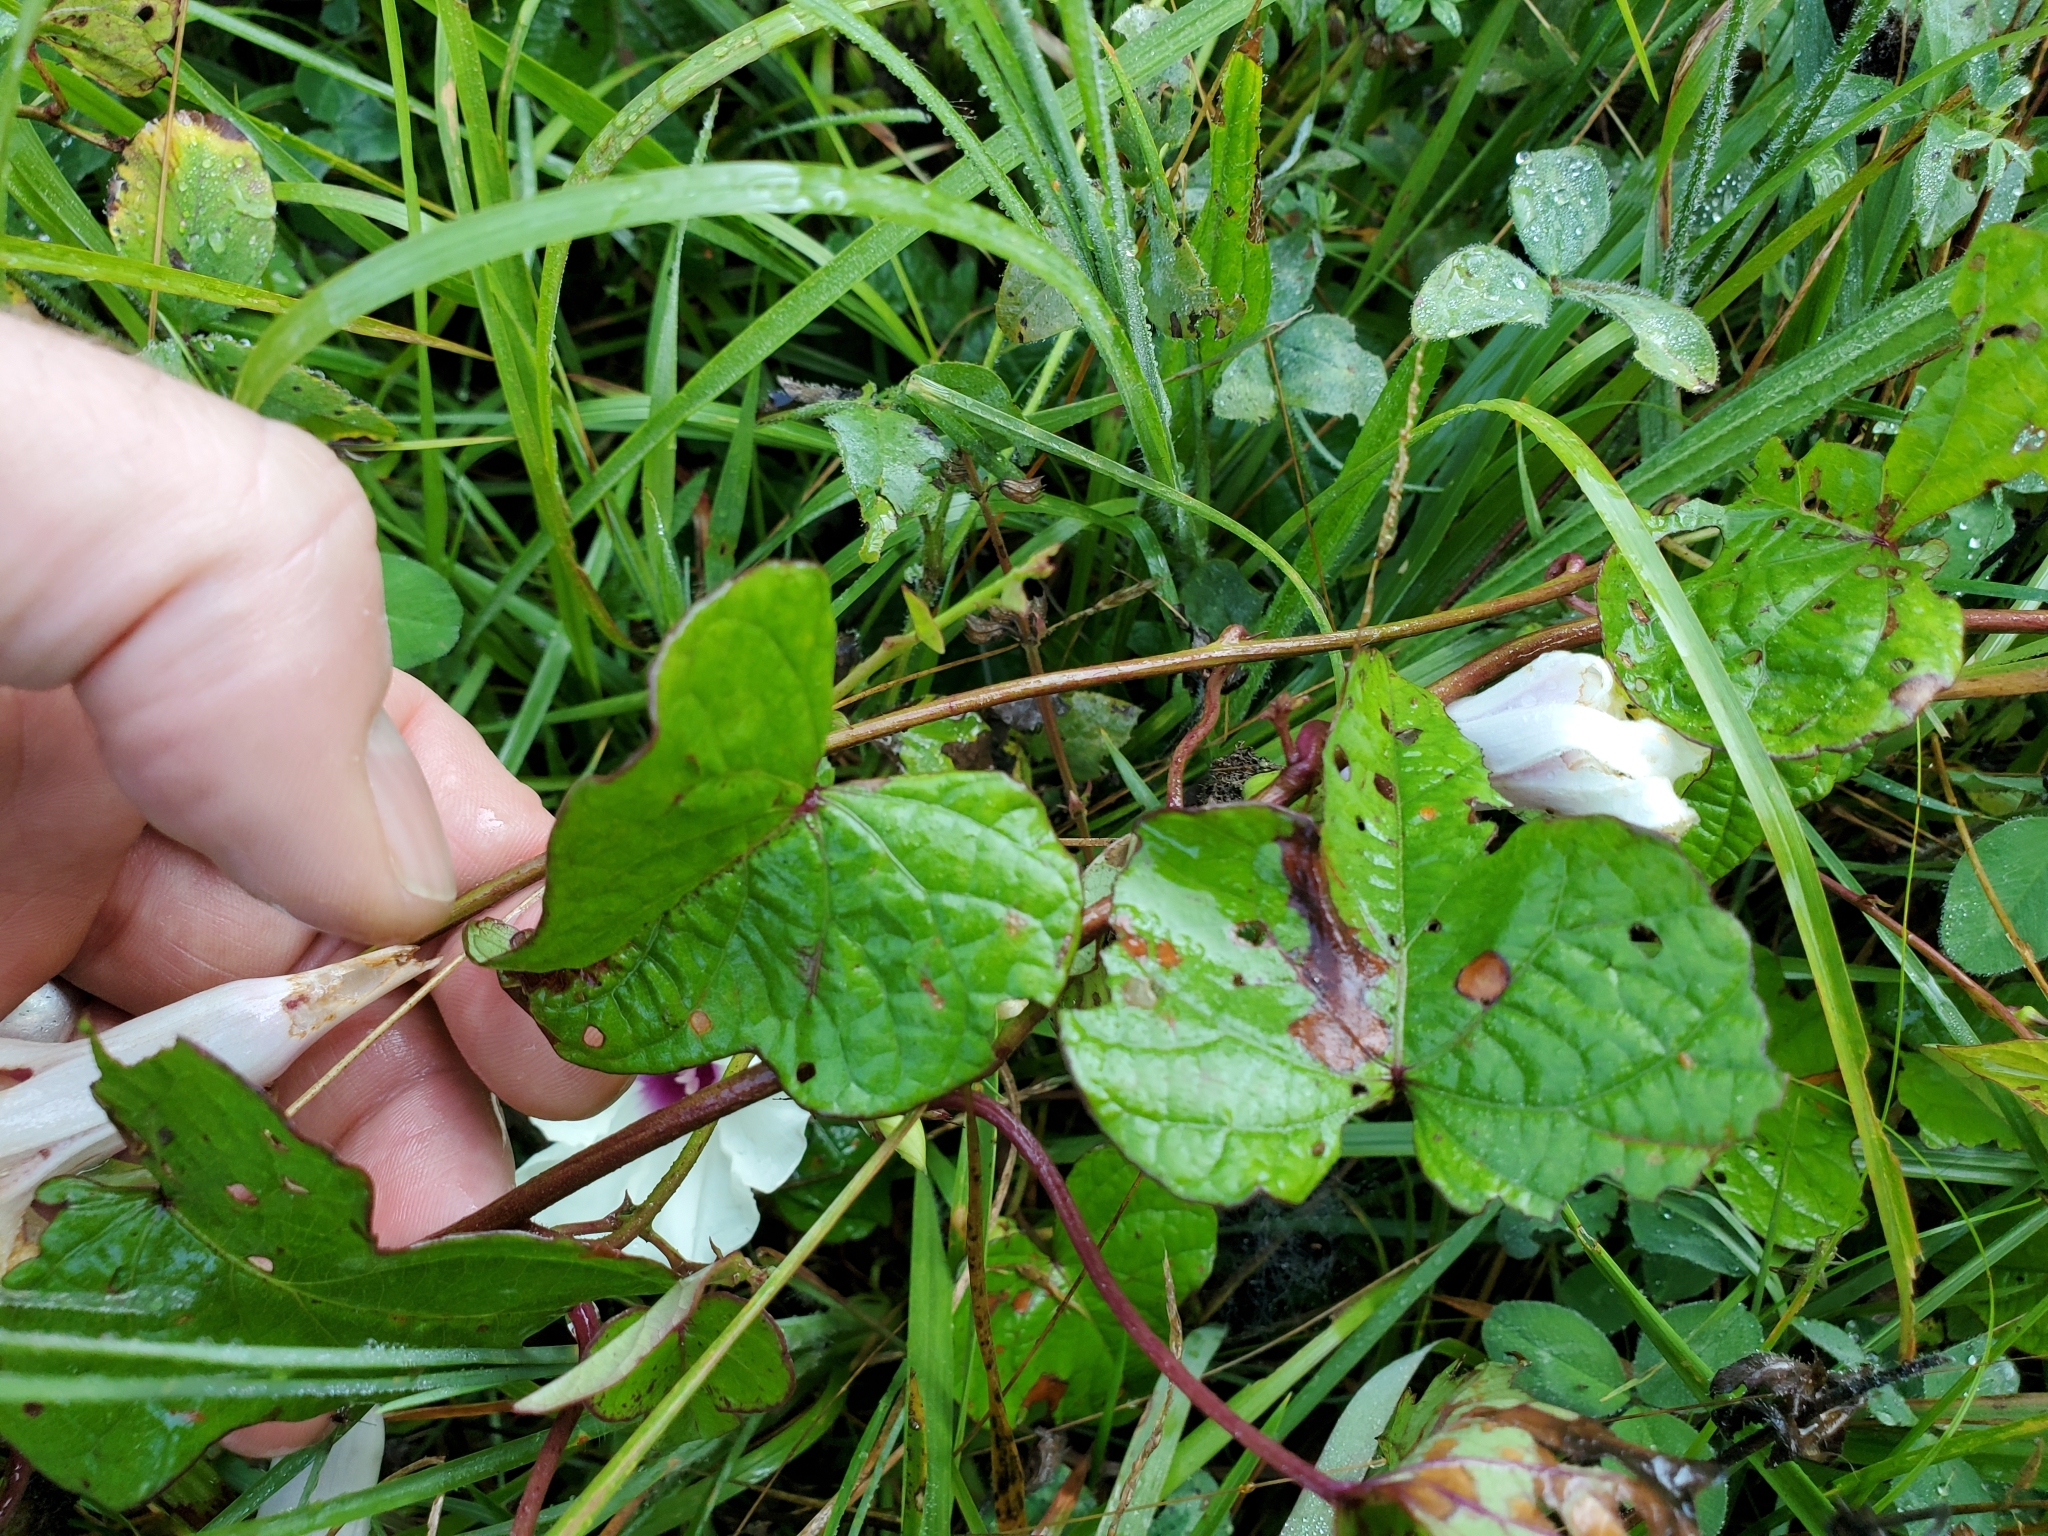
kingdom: Plantae
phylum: Tracheophyta
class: Magnoliopsida
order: Solanales
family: Convolvulaceae
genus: Ipomoea
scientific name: Ipomoea pandurata
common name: Man-of-the-earth
